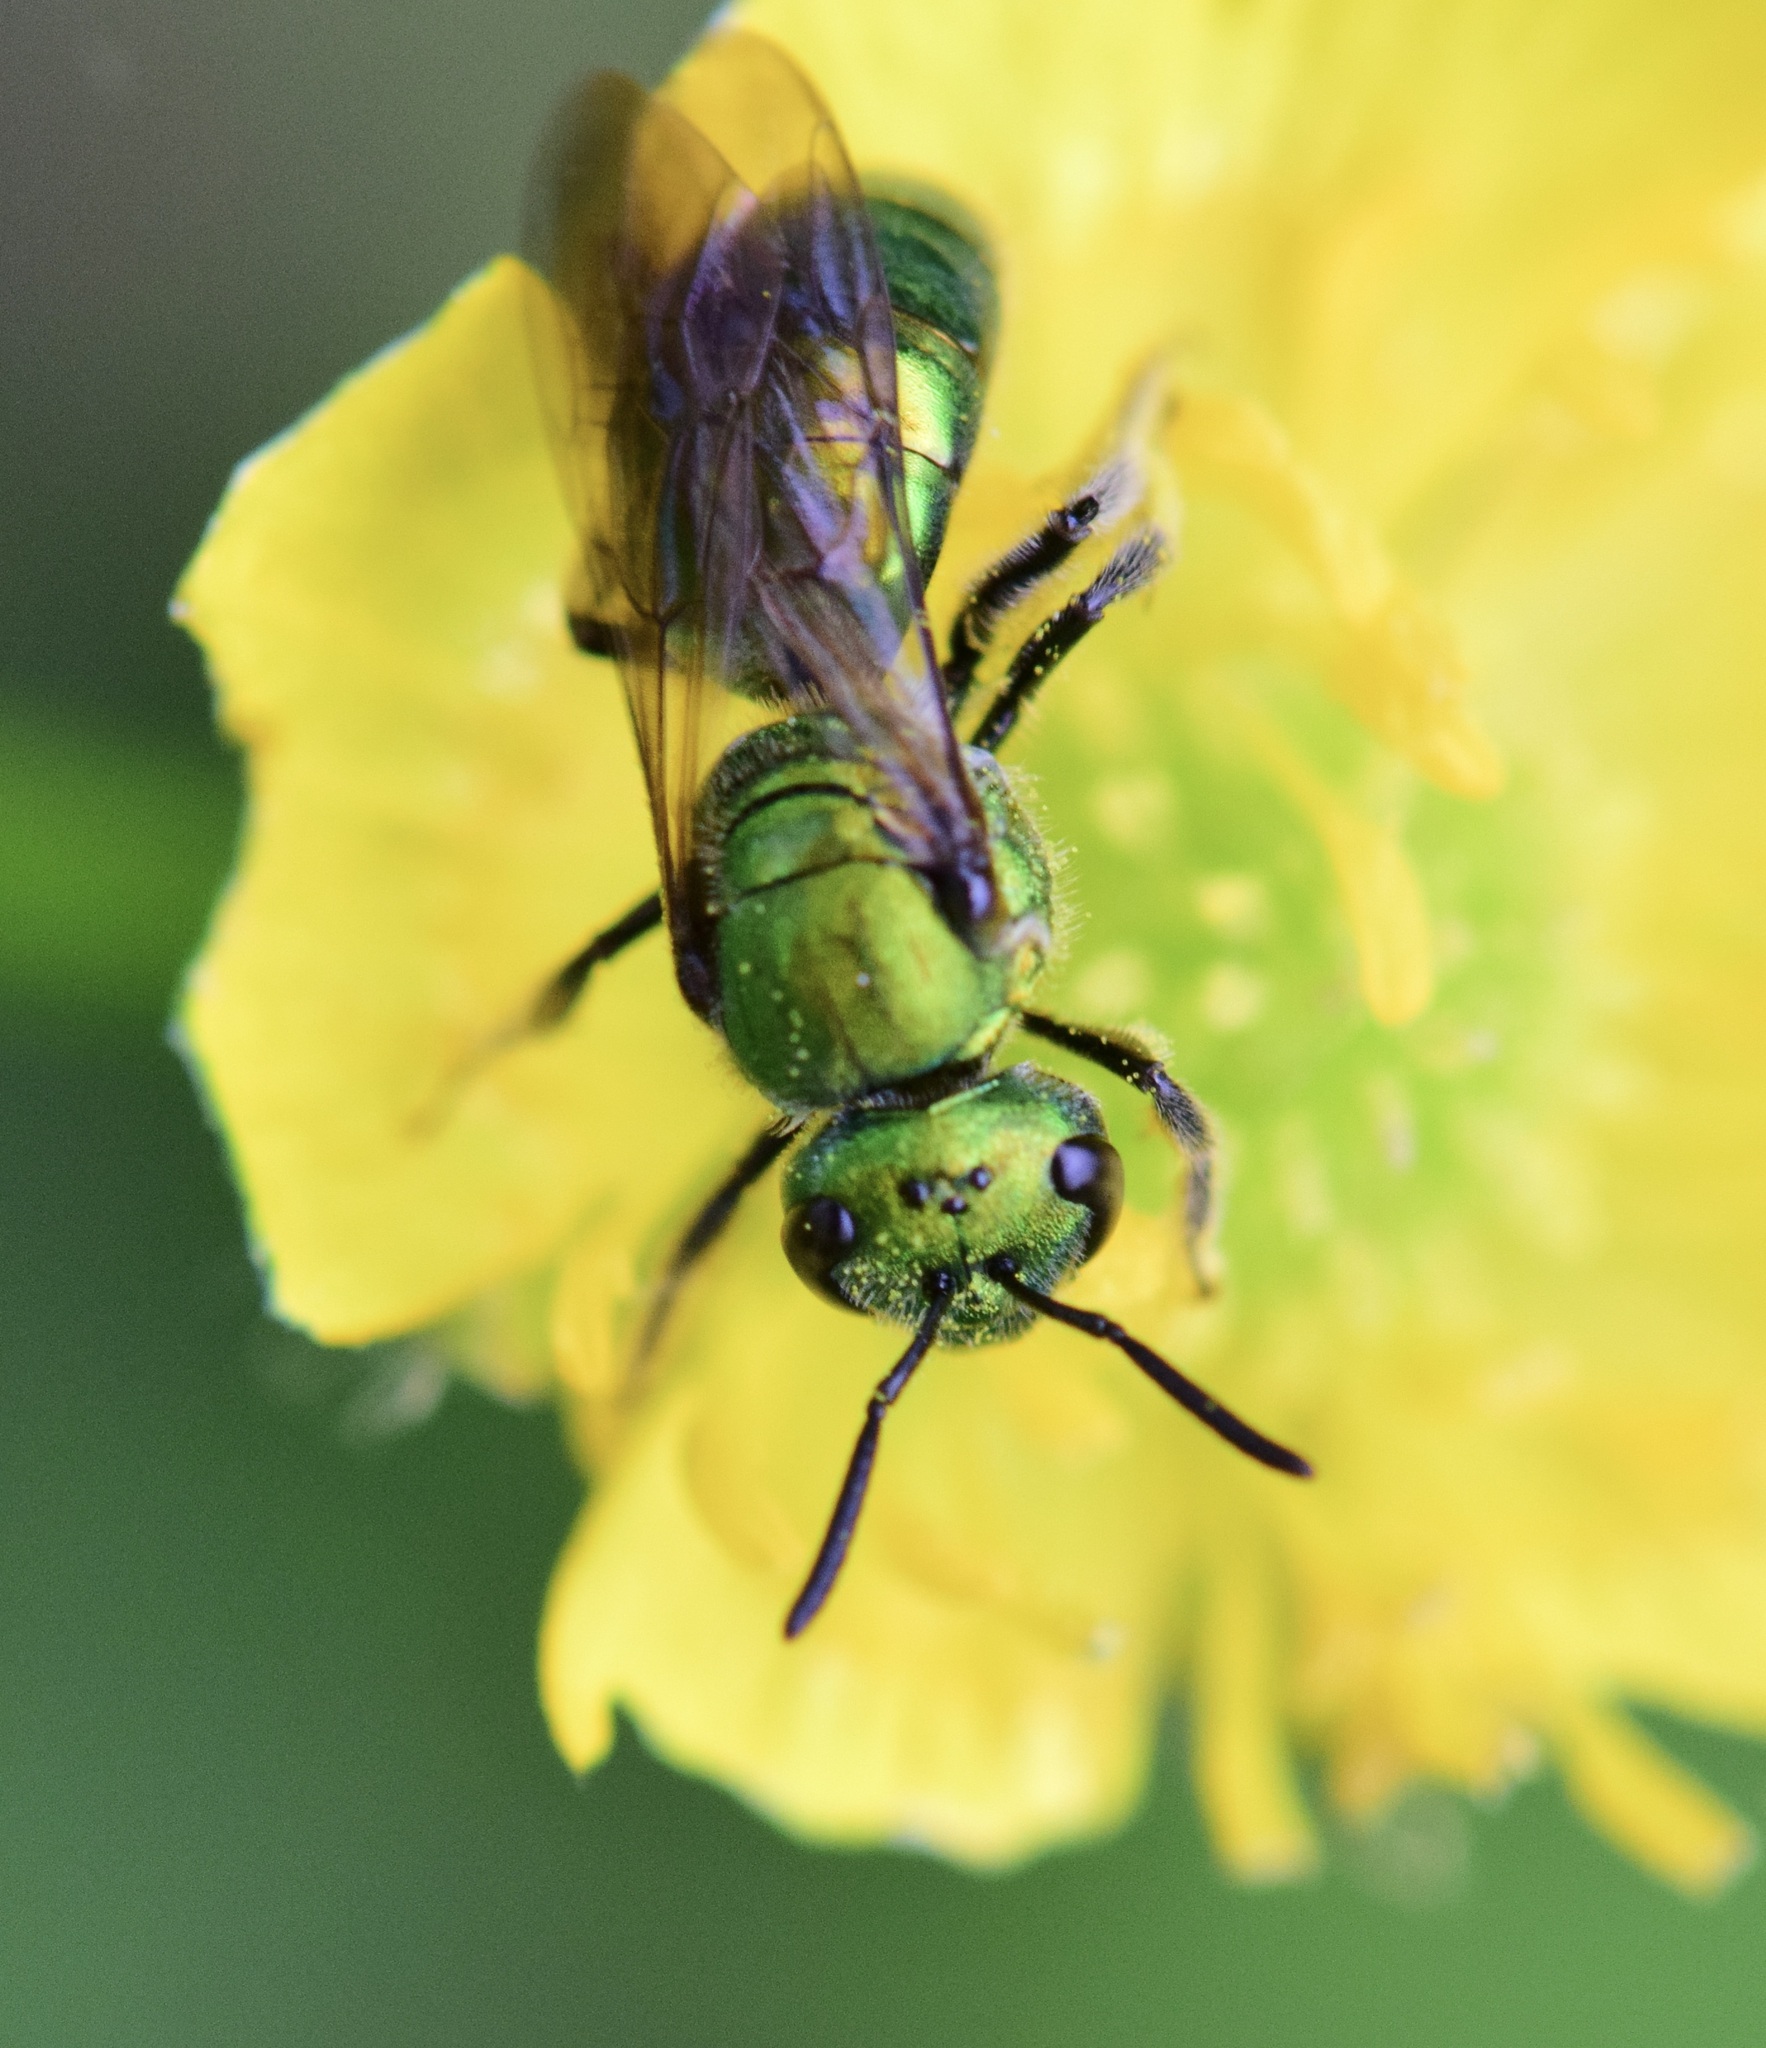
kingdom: Animalia
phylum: Arthropoda
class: Insecta
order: Hymenoptera
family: Halictidae
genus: Augochlora
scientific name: Augochlora pura
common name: Pure green sweat bee
